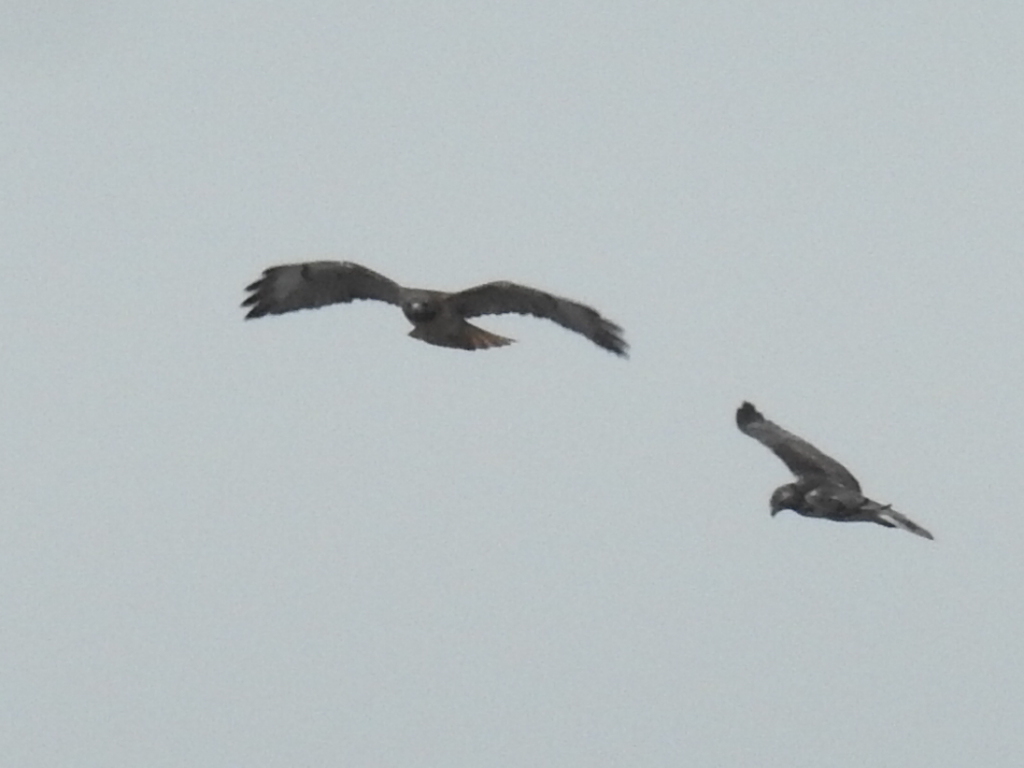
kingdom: Animalia
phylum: Chordata
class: Aves
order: Accipitriformes
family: Accipitridae
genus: Buteo
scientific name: Buteo jamaicensis
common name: Red-tailed hawk
